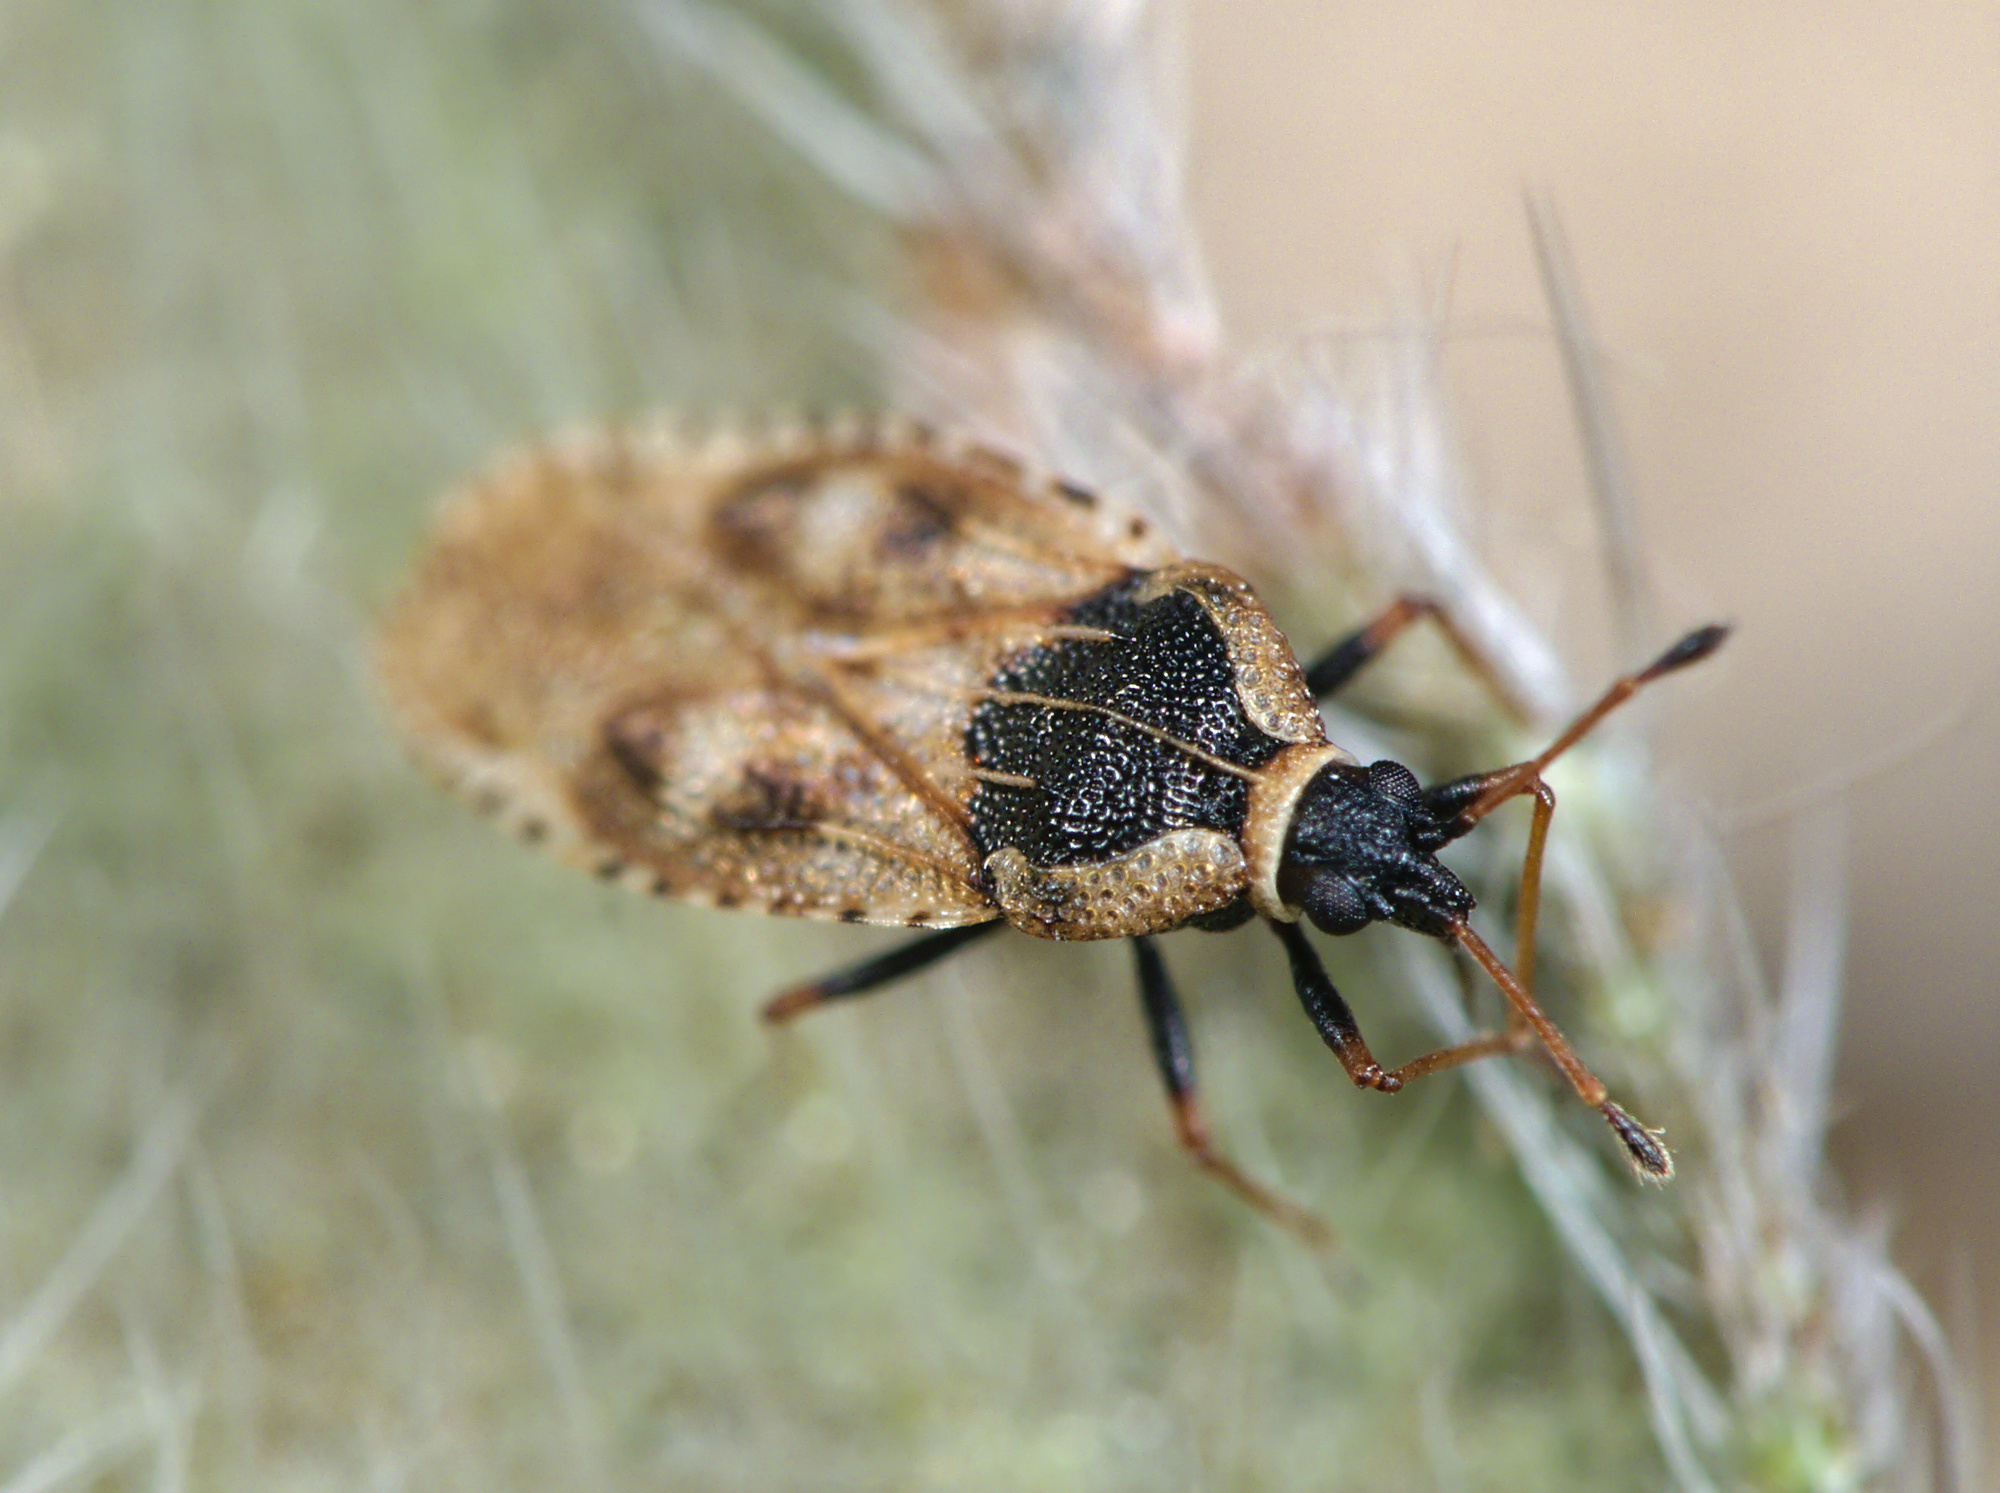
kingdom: Animalia
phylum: Arthropoda
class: Insecta
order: Hemiptera
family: Tingidae
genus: Dictyla
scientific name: Dictyla echii
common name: Lace bug
